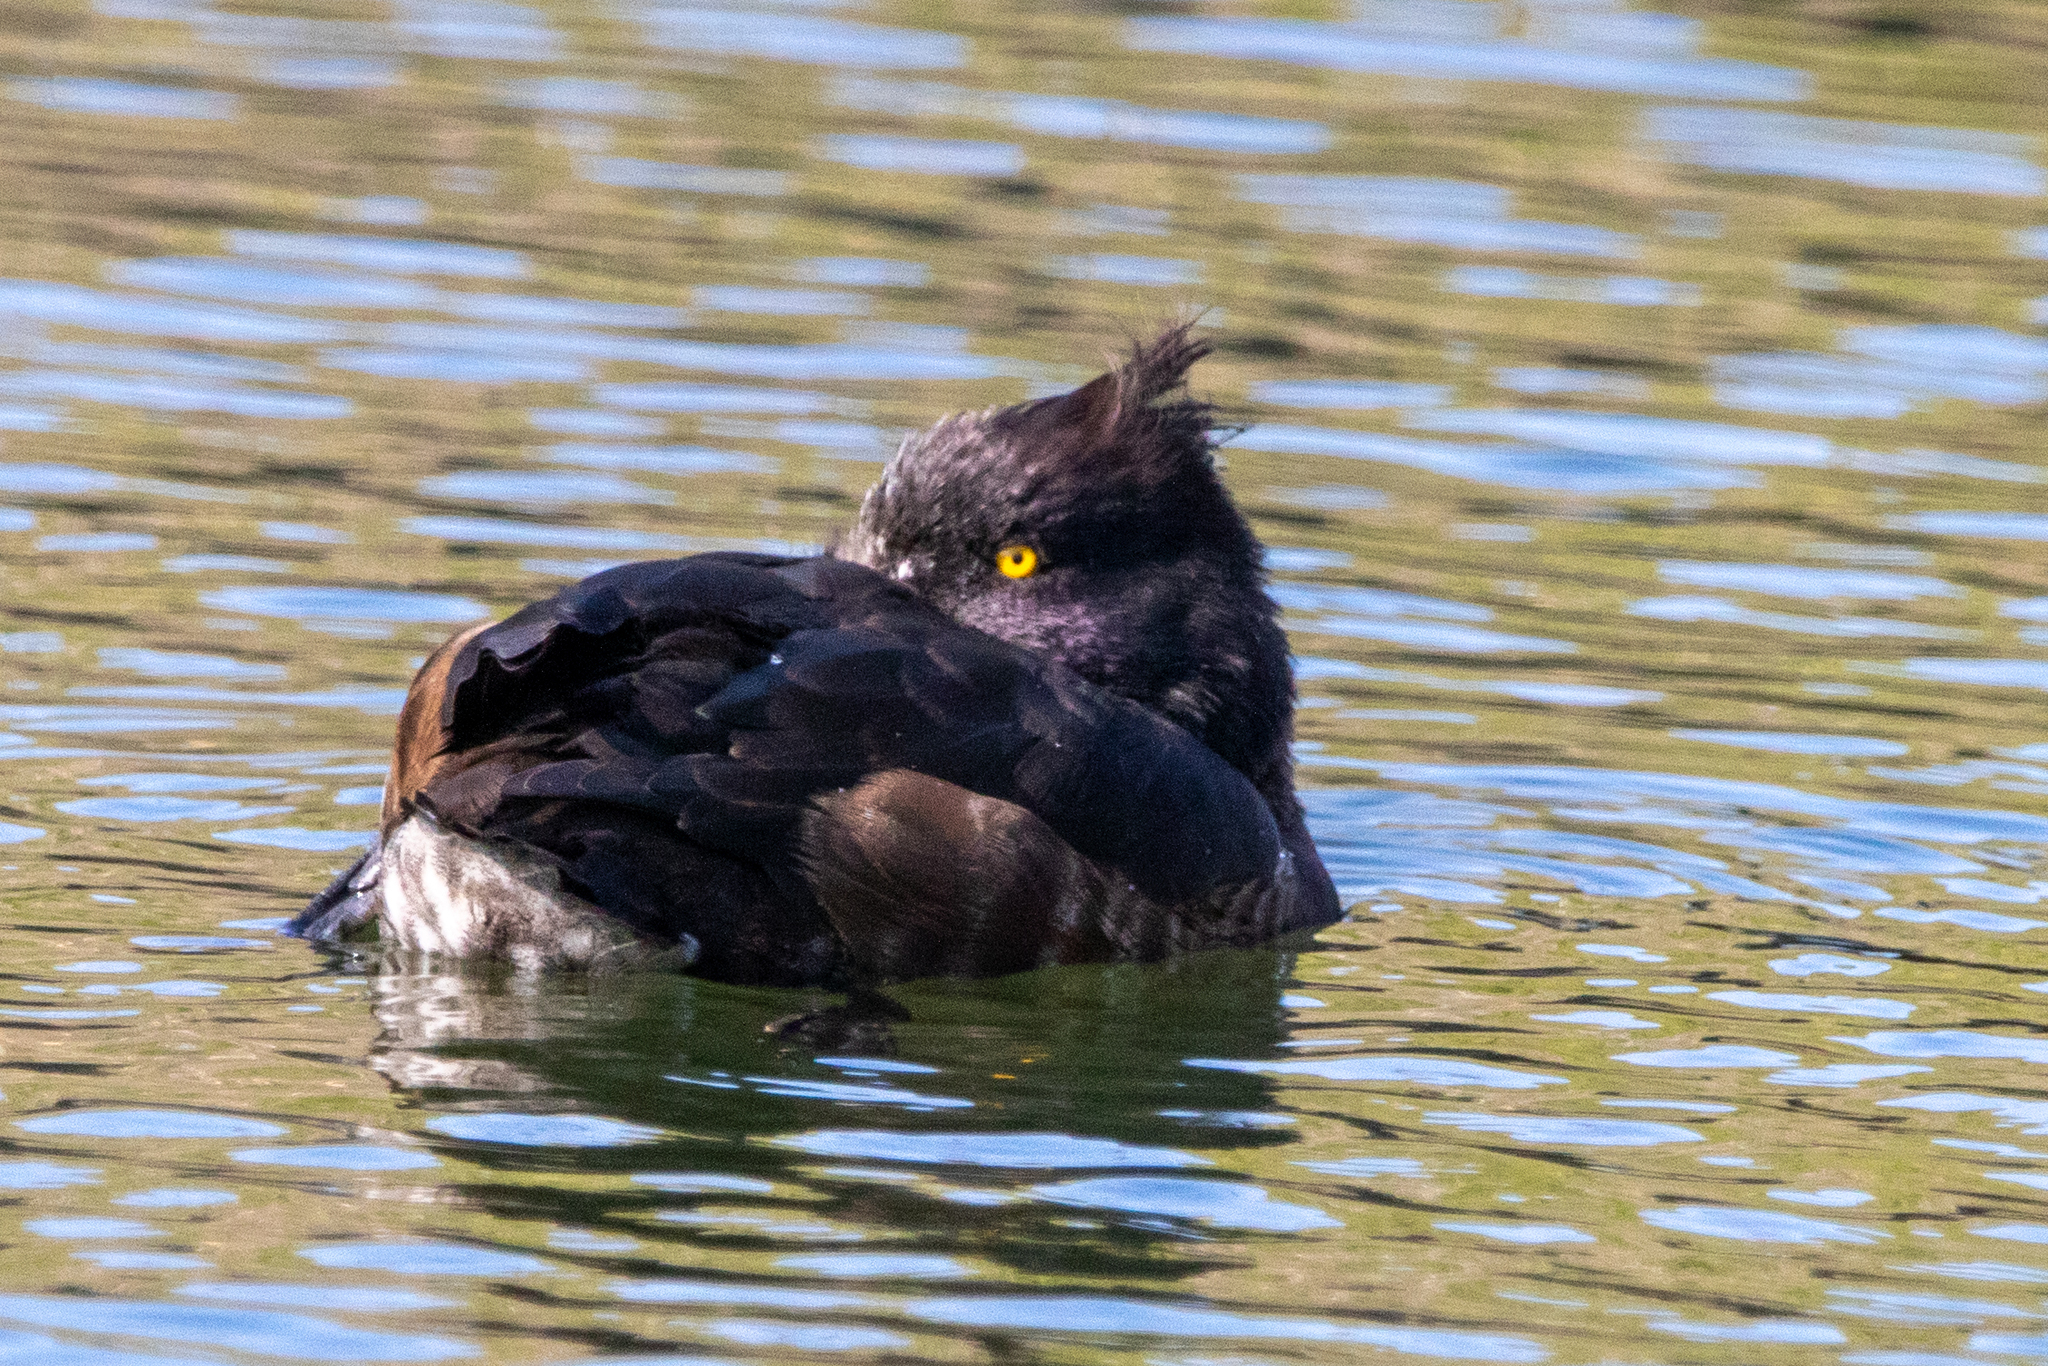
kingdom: Animalia
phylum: Chordata
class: Aves
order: Anseriformes
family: Anatidae
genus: Aythya
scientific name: Aythya fuligula
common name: Tufted duck
